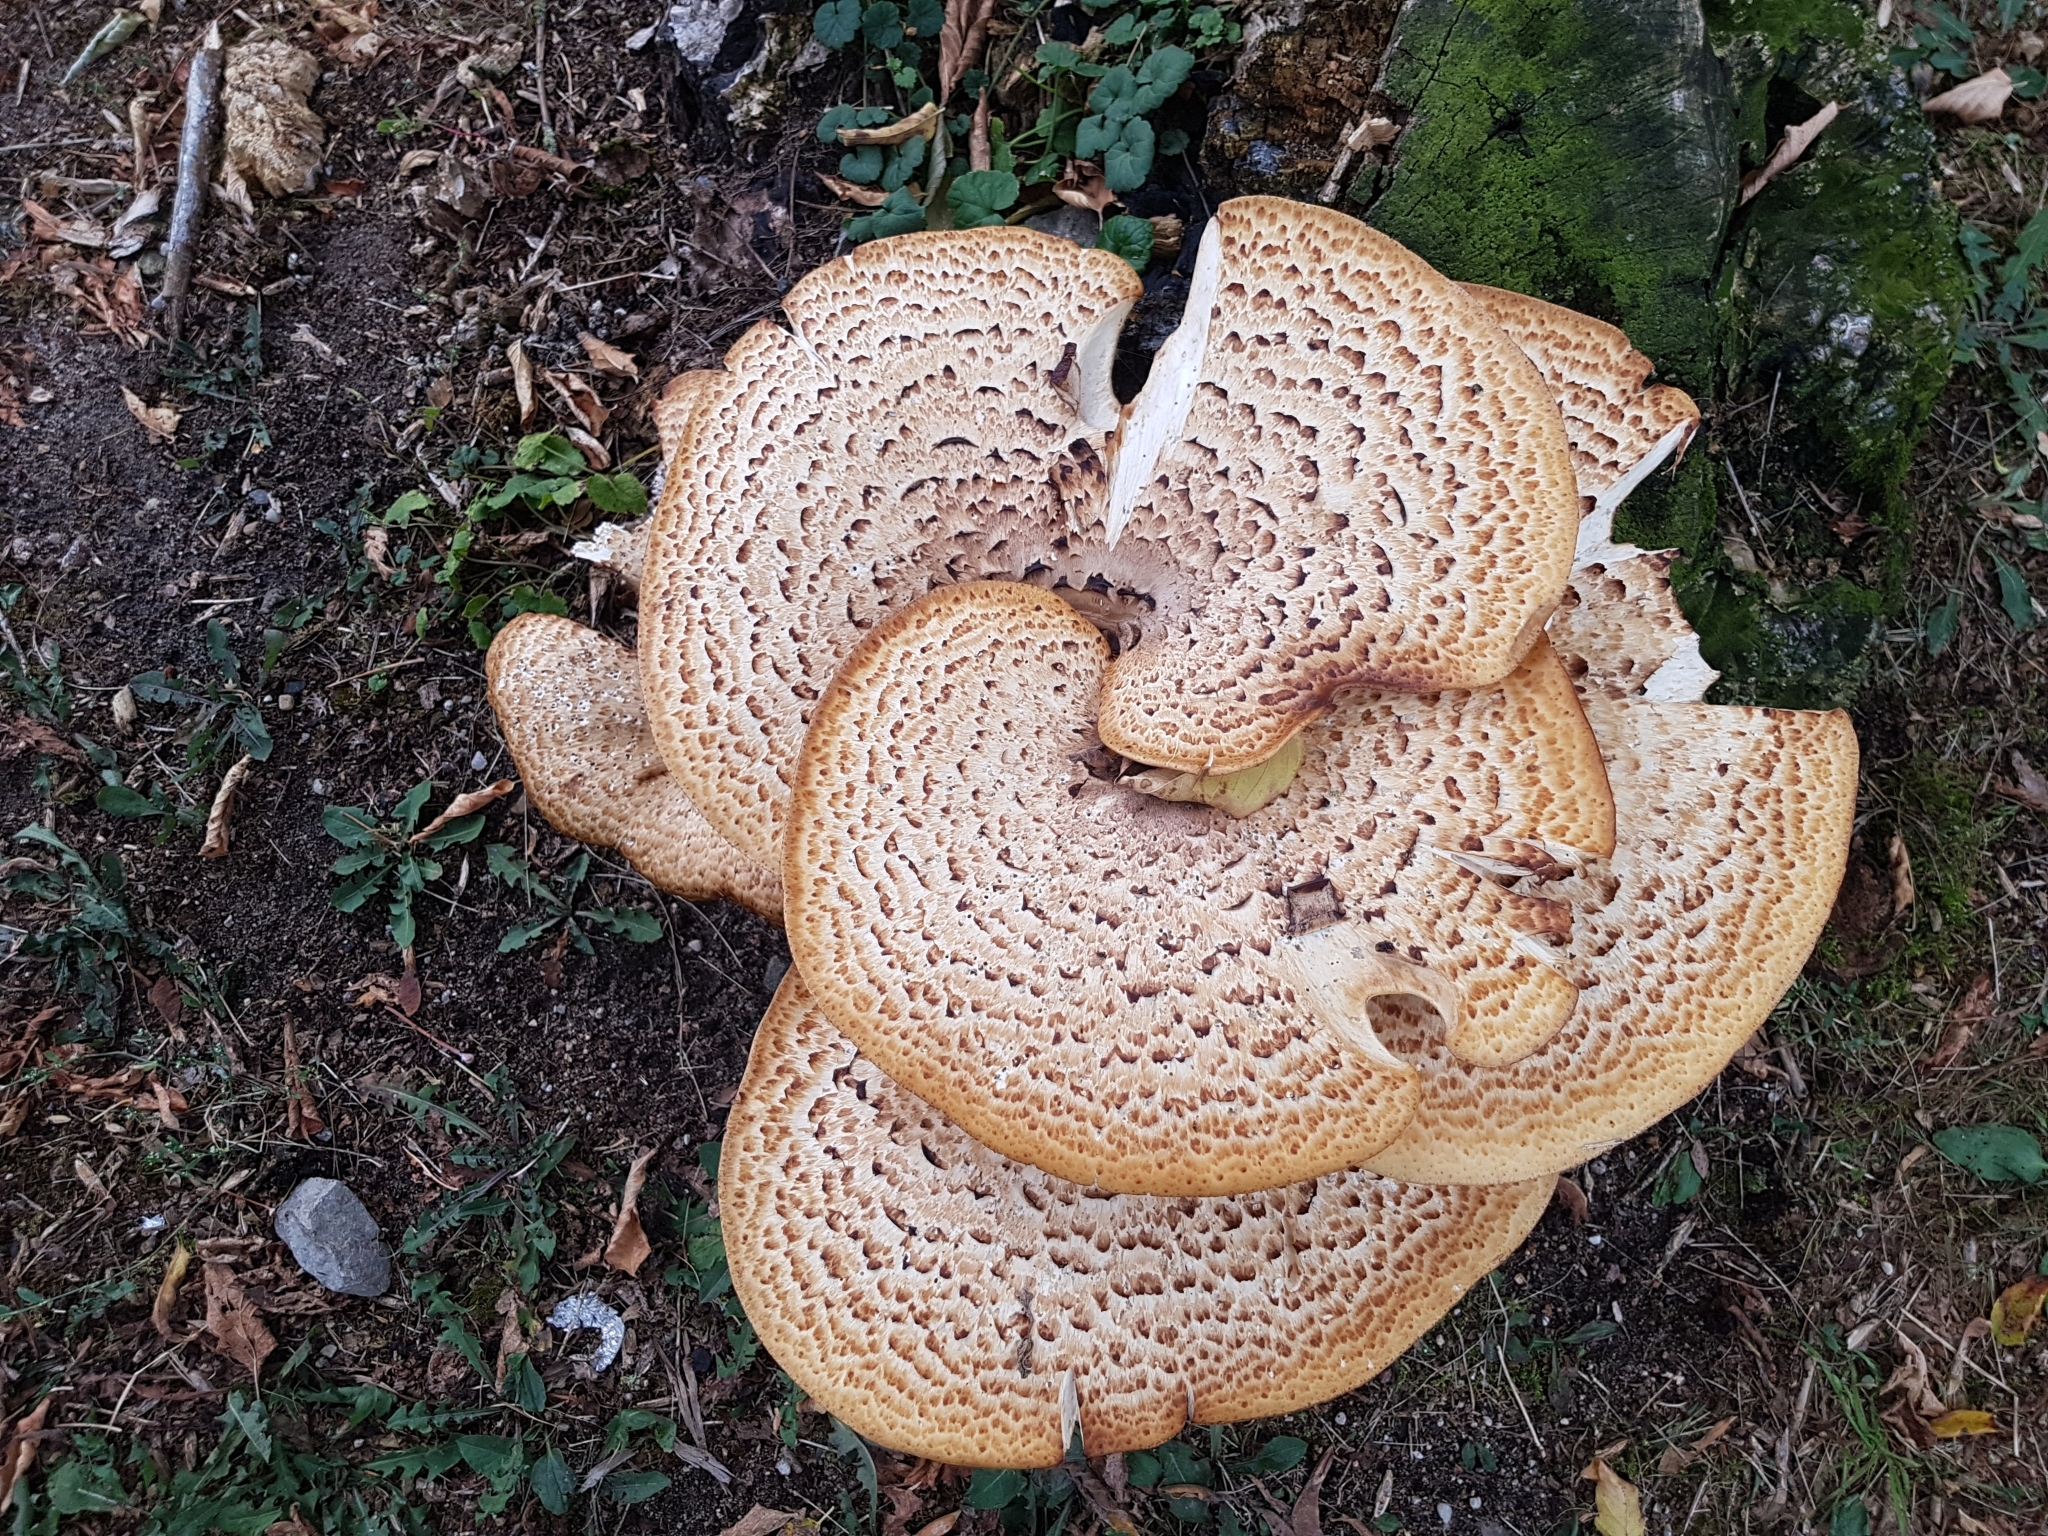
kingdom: Fungi
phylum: Basidiomycota
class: Agaricomycetes
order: Polyporales
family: Polyporaceae
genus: Cerioporus
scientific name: Cerioporus squamosus
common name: Dryad's saddle
